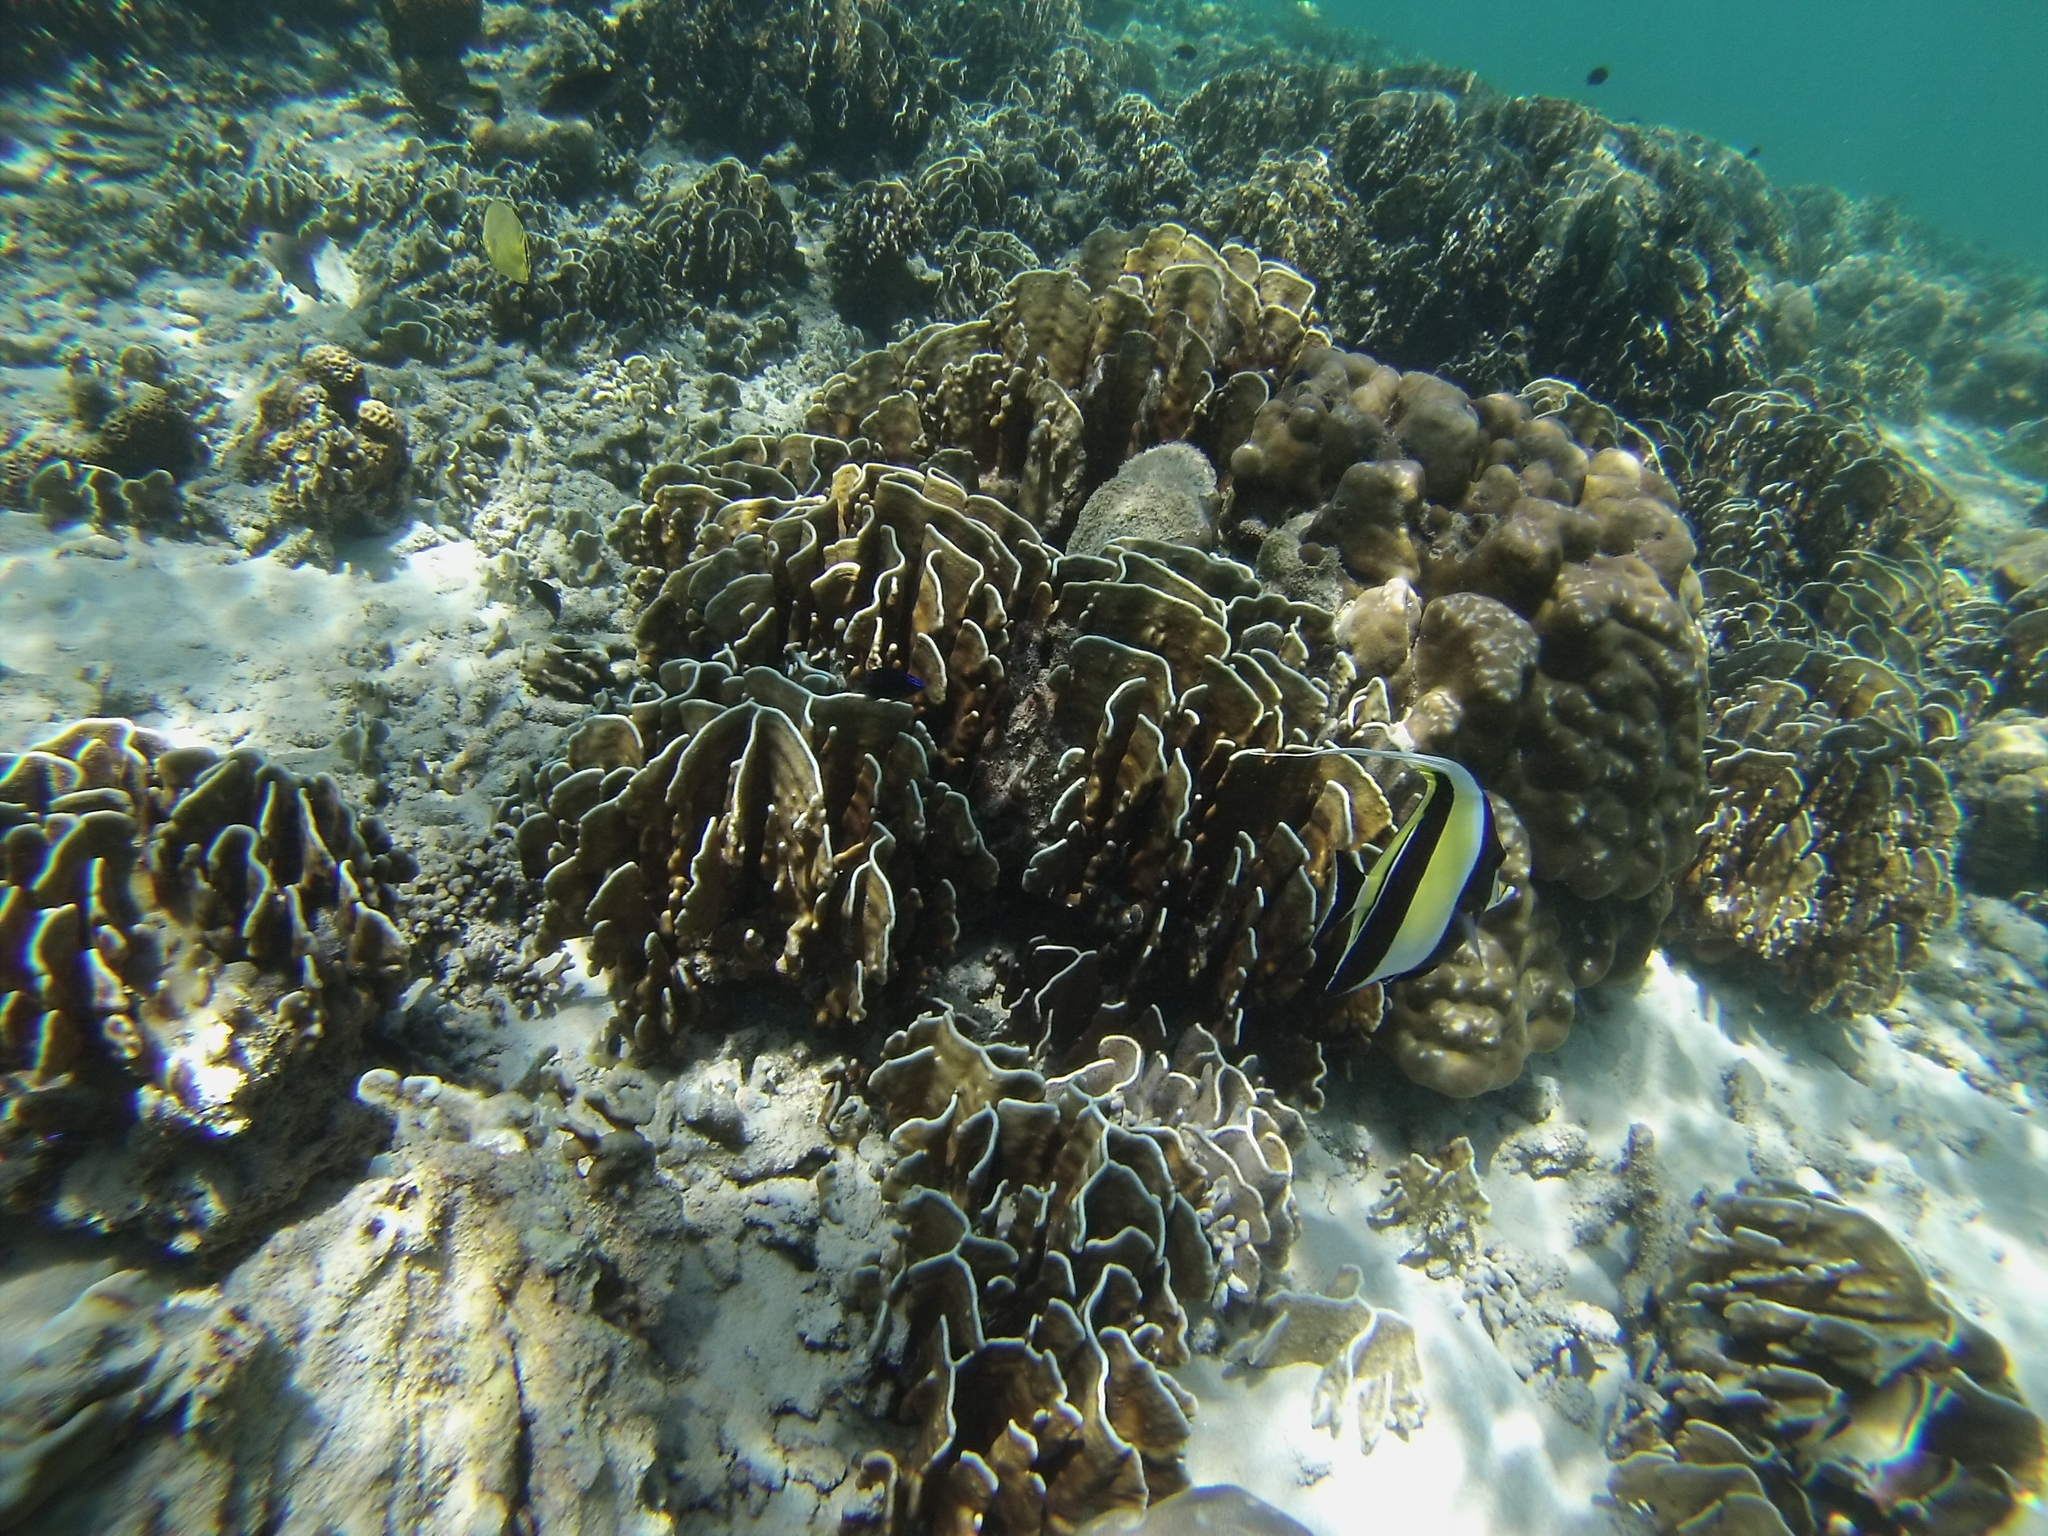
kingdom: Animalia
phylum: Chordata
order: Perciformes
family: Zanclidae
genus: Zanclus
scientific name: Zanclus cornutus
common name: Moorish idol
